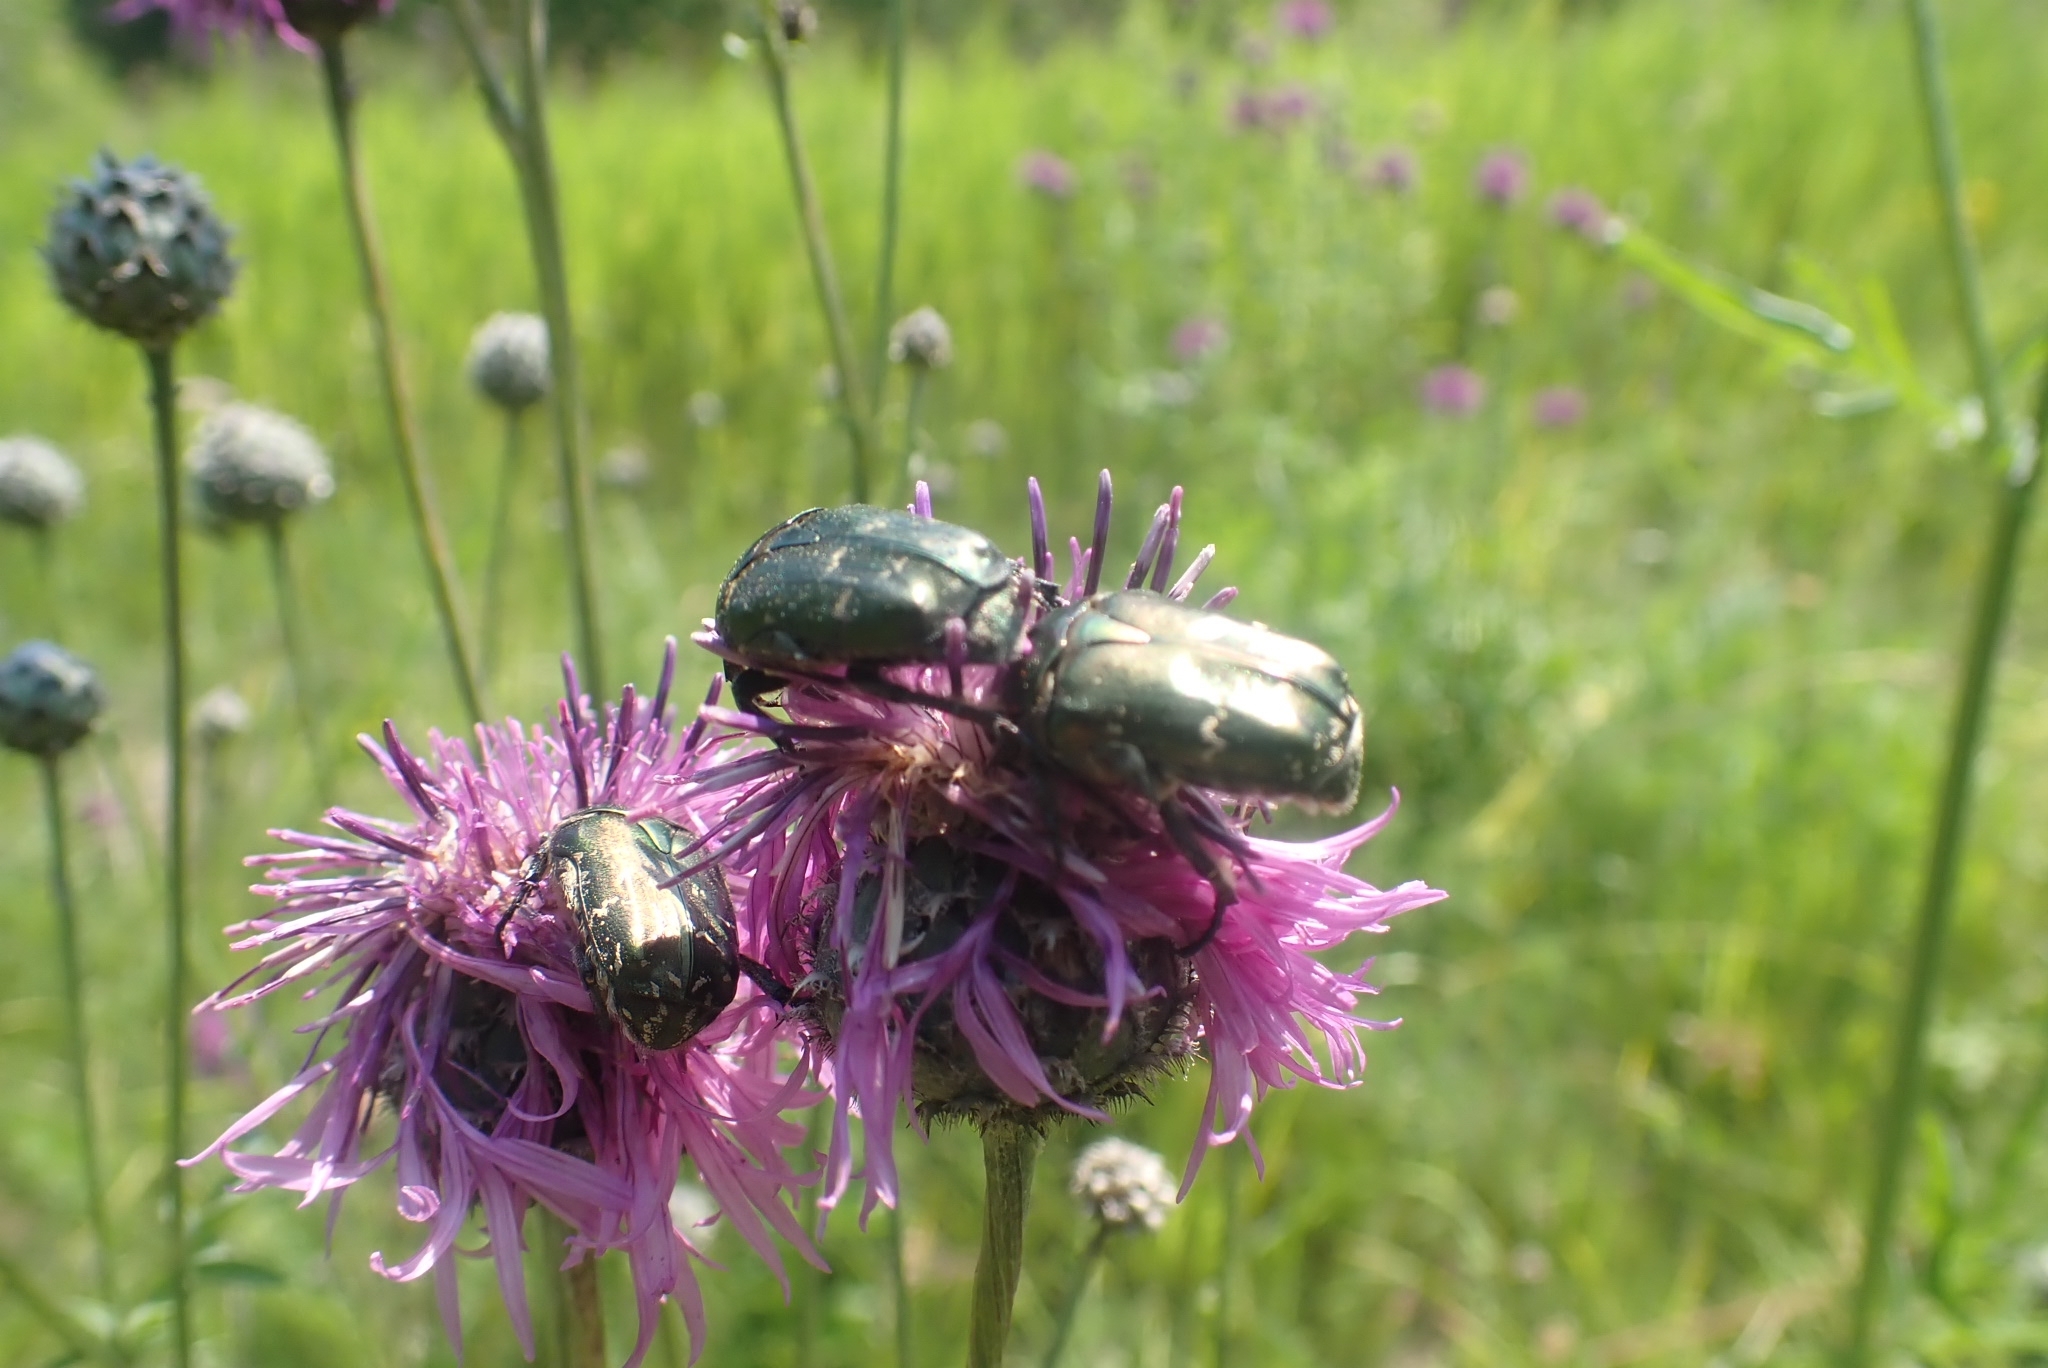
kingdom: Animalia
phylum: Arthropoda
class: Insecta
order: Coleoptera
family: Scarabaeidae
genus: Protaetia
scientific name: Protaetia cuprea
